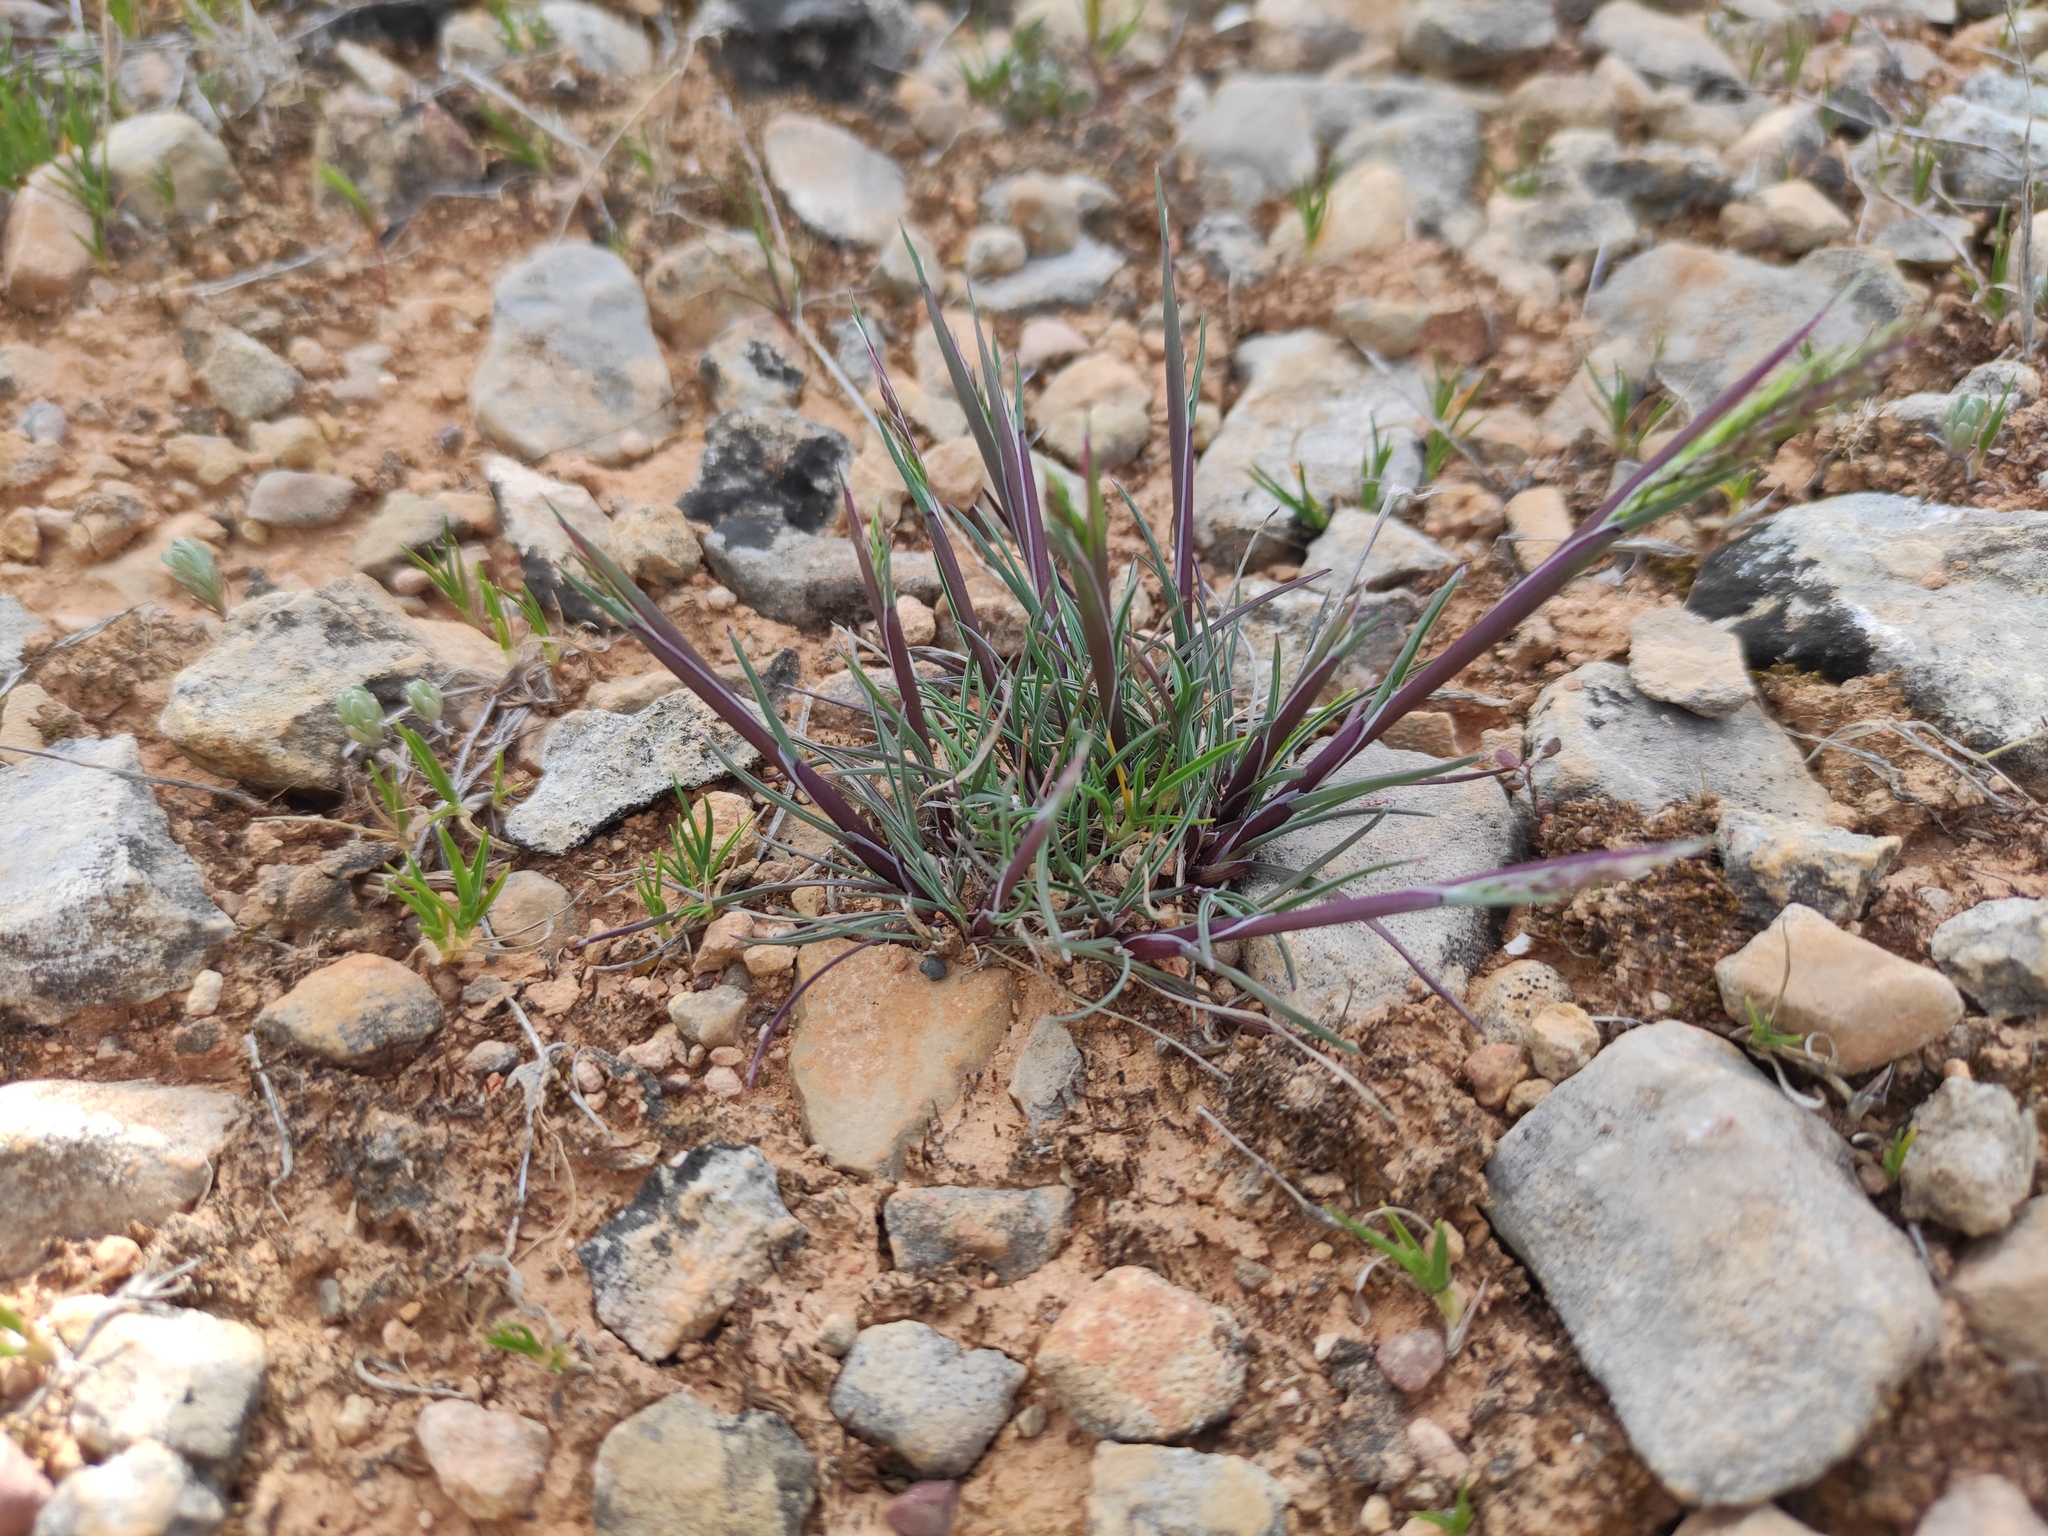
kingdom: Plantae
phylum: Tracheophyta
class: Liliopsida
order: Poales
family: Poaceae
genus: Poa
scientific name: Poa bulbosa
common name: Bulbous bluegrass
